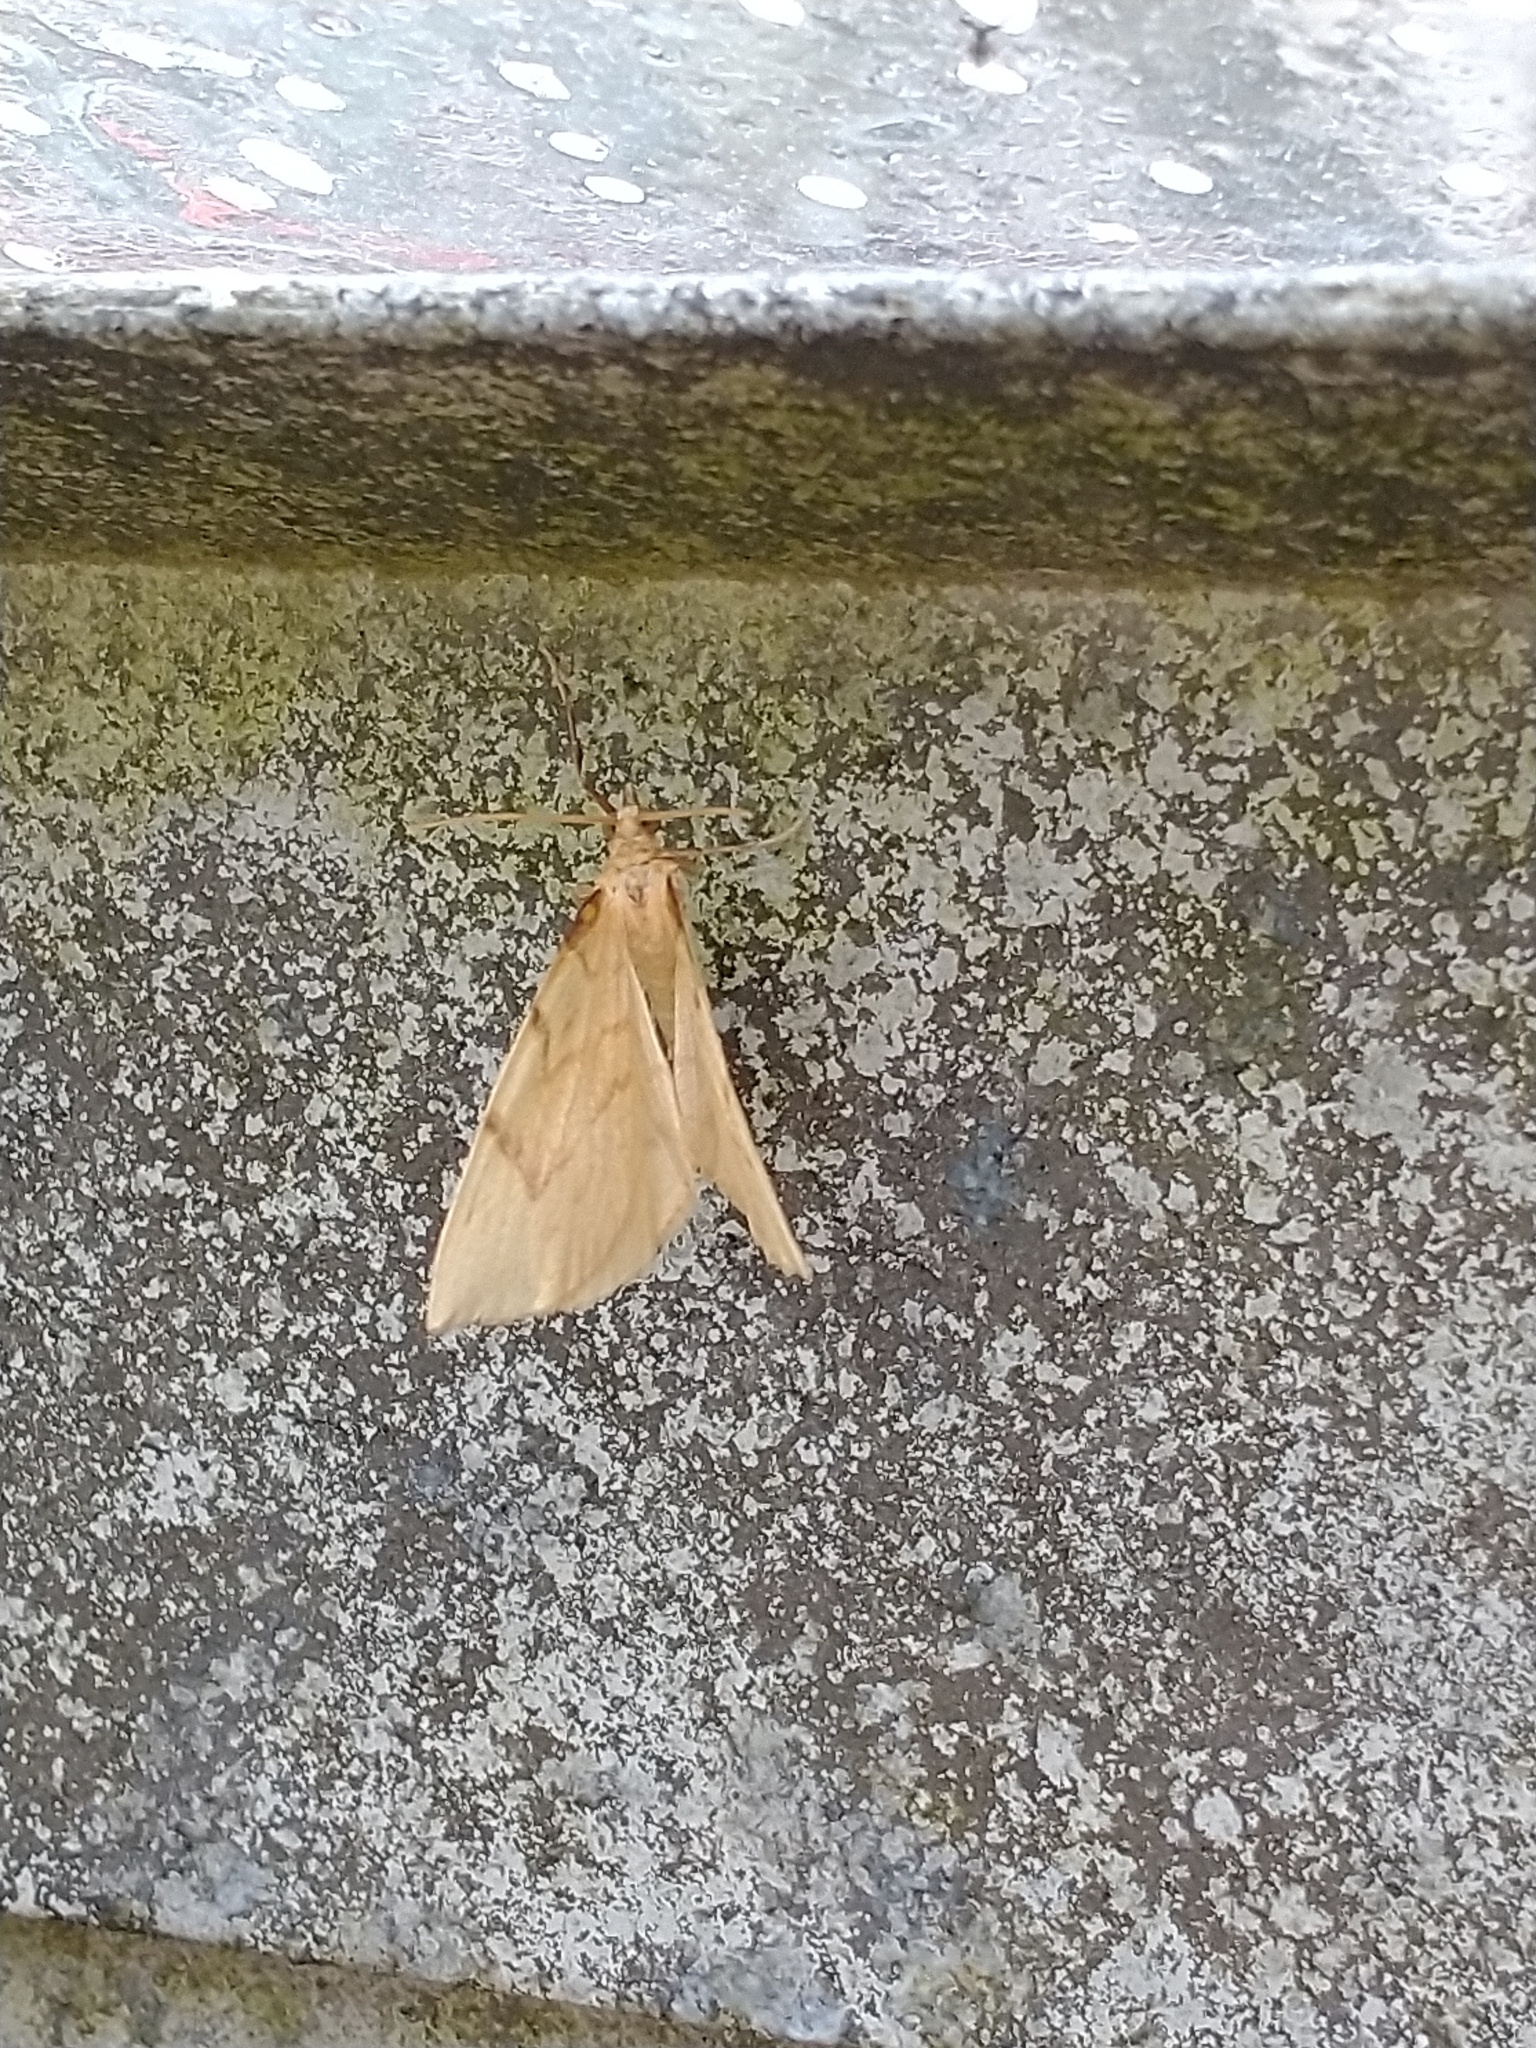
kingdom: Animalia
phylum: Arthropoda
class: Insecta
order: Lepidoptera
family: Geometridae
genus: Eulithis
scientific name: Eulithis pyraliata
